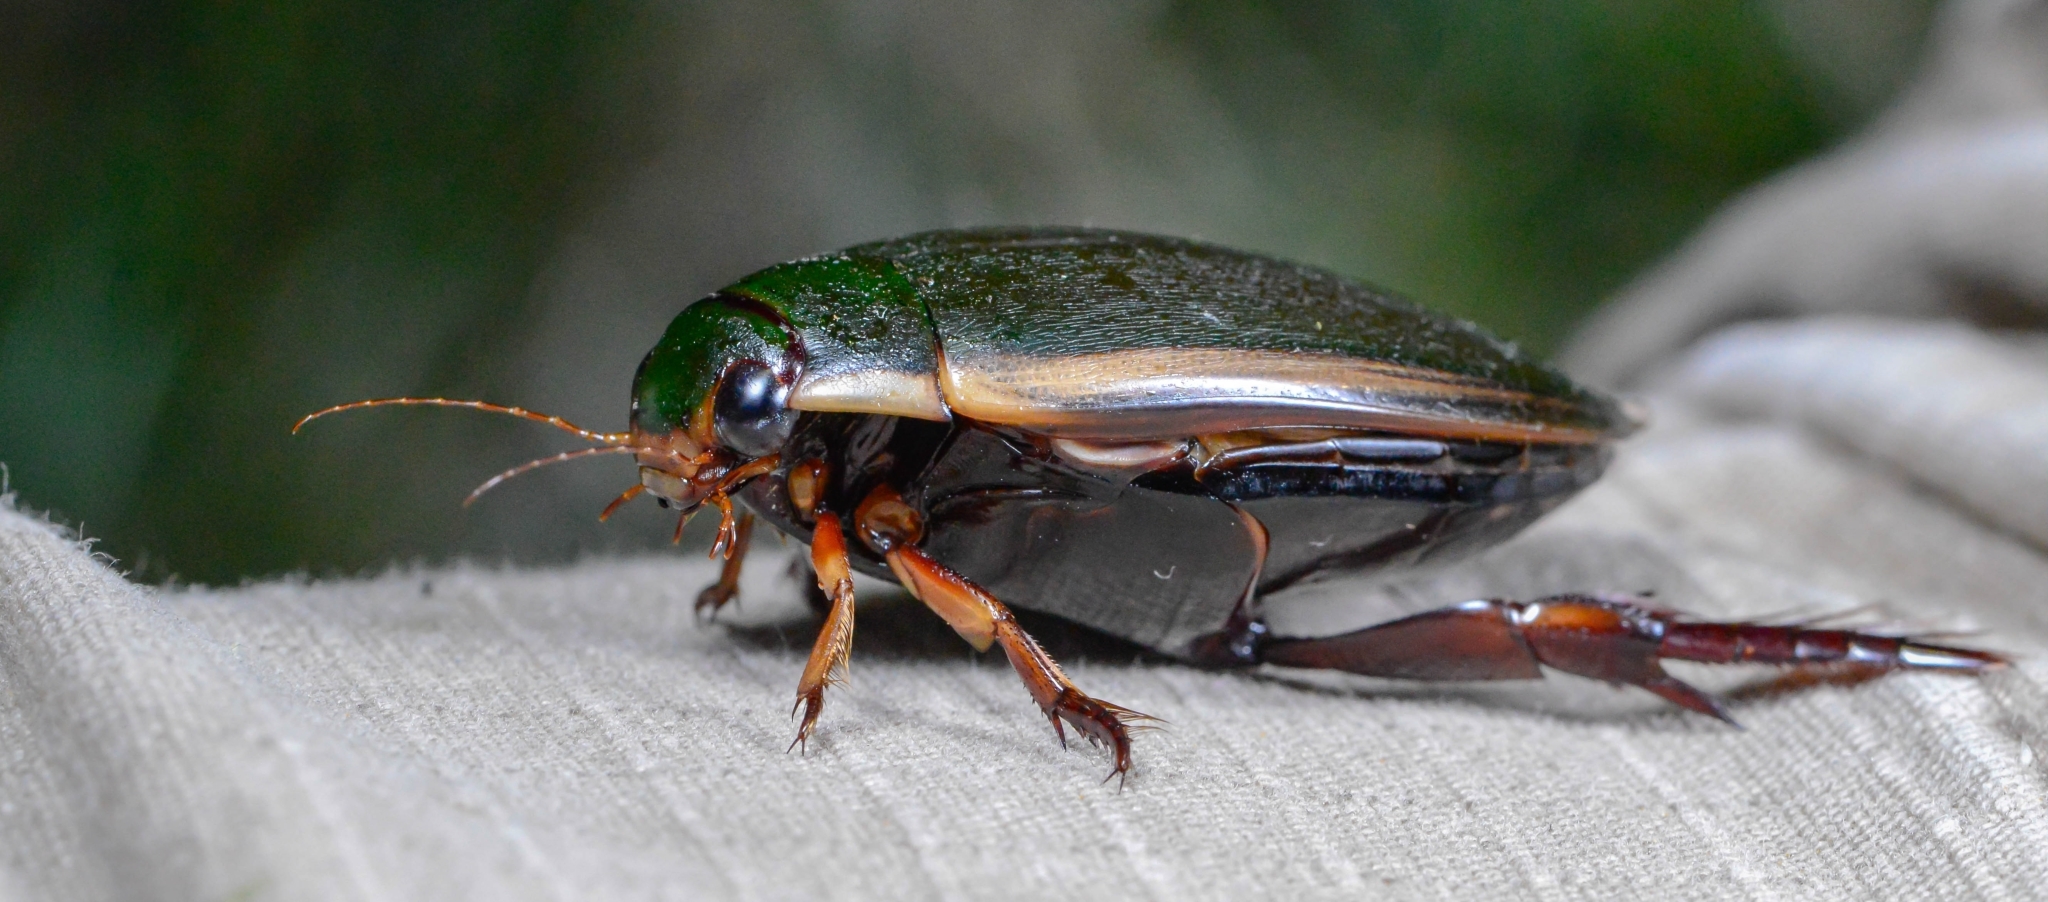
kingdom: Animalia
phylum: Arthropoda
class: Insecta
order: Coleoptera
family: Dytiscidae
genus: Cybister
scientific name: Cybister fimbriolatus
